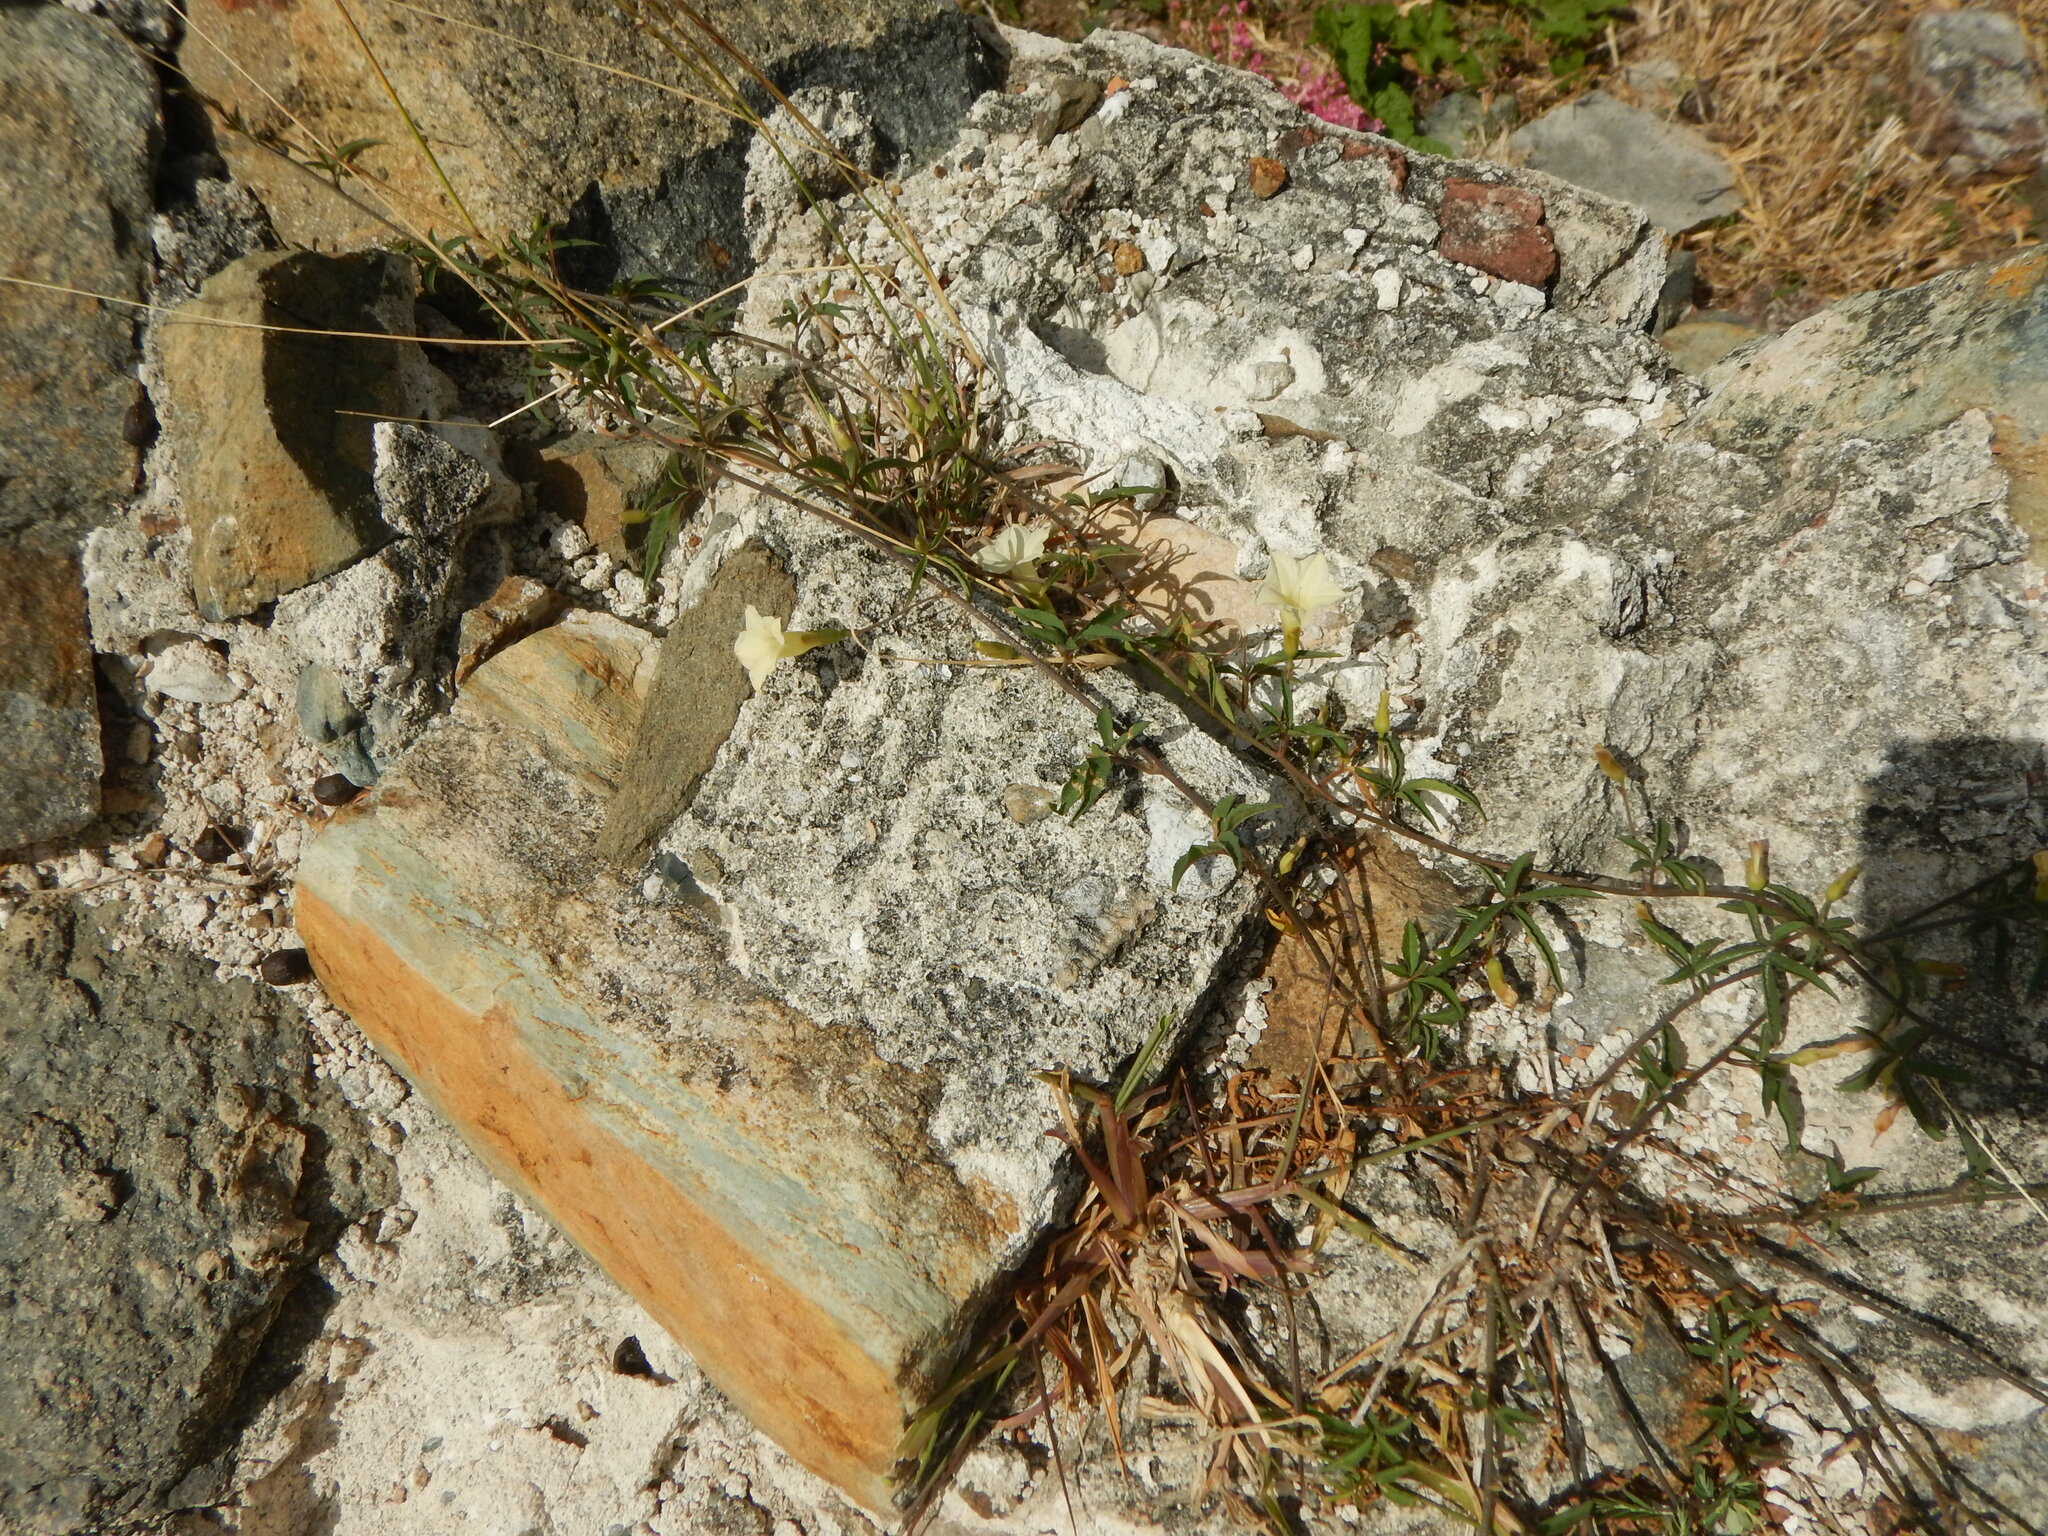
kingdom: Plantae
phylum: Tracheophyta
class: Magnoliopsida
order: Solanales
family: Convolvulaceae
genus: Distimake
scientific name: Distimake quinquefolius
